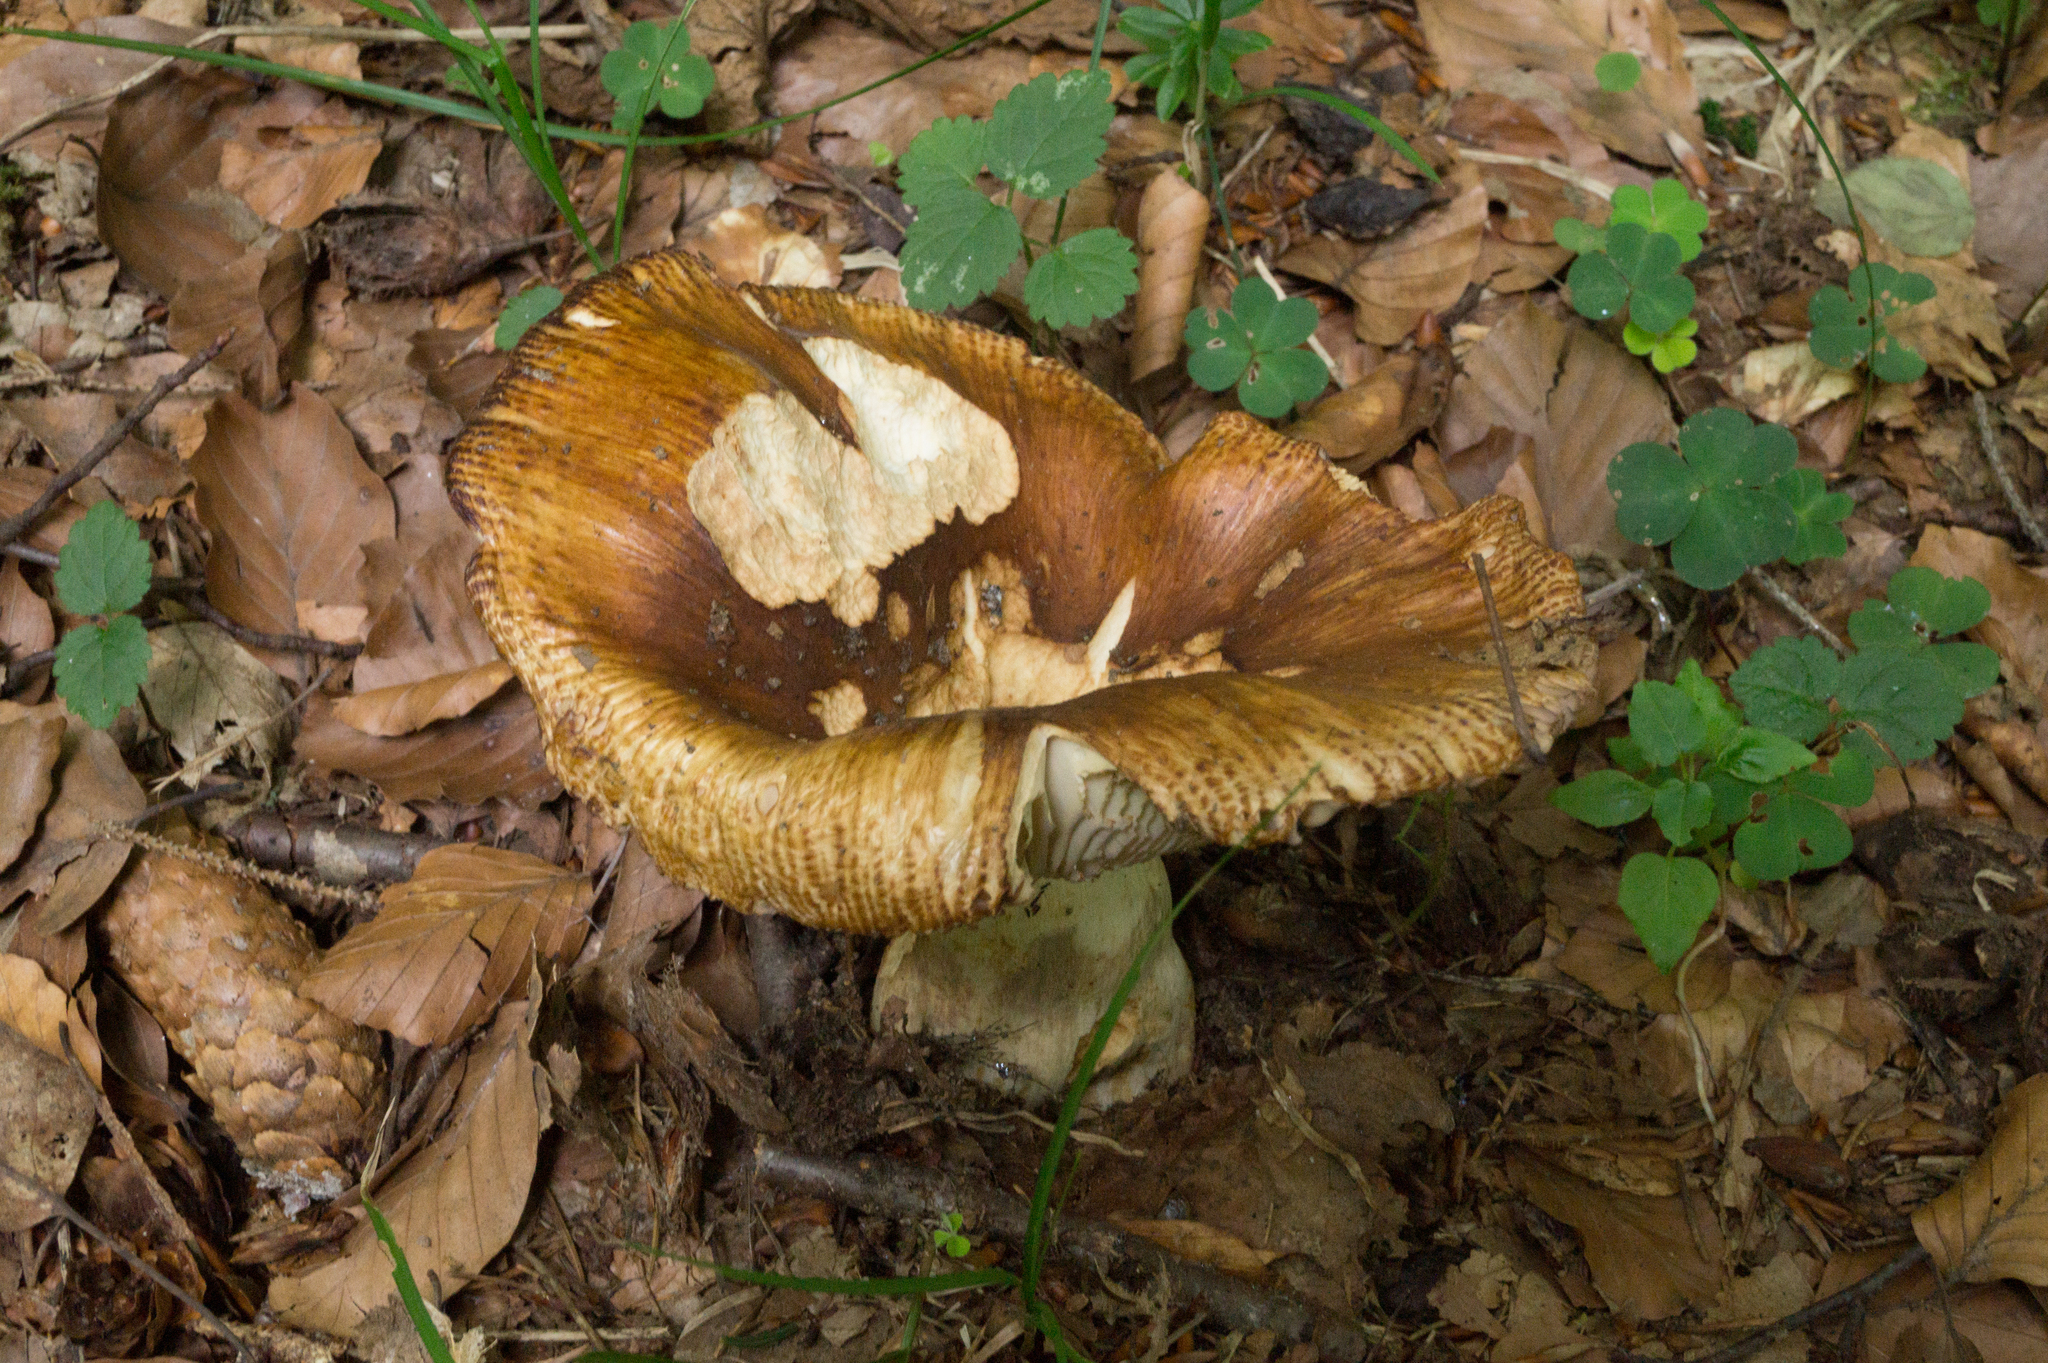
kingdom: Fungi
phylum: Basidiomycota
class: Agaricomycetes
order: Russulales
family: Russulaceae
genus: Russula
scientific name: Russula subfoetens
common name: Least stinking brittlegill
